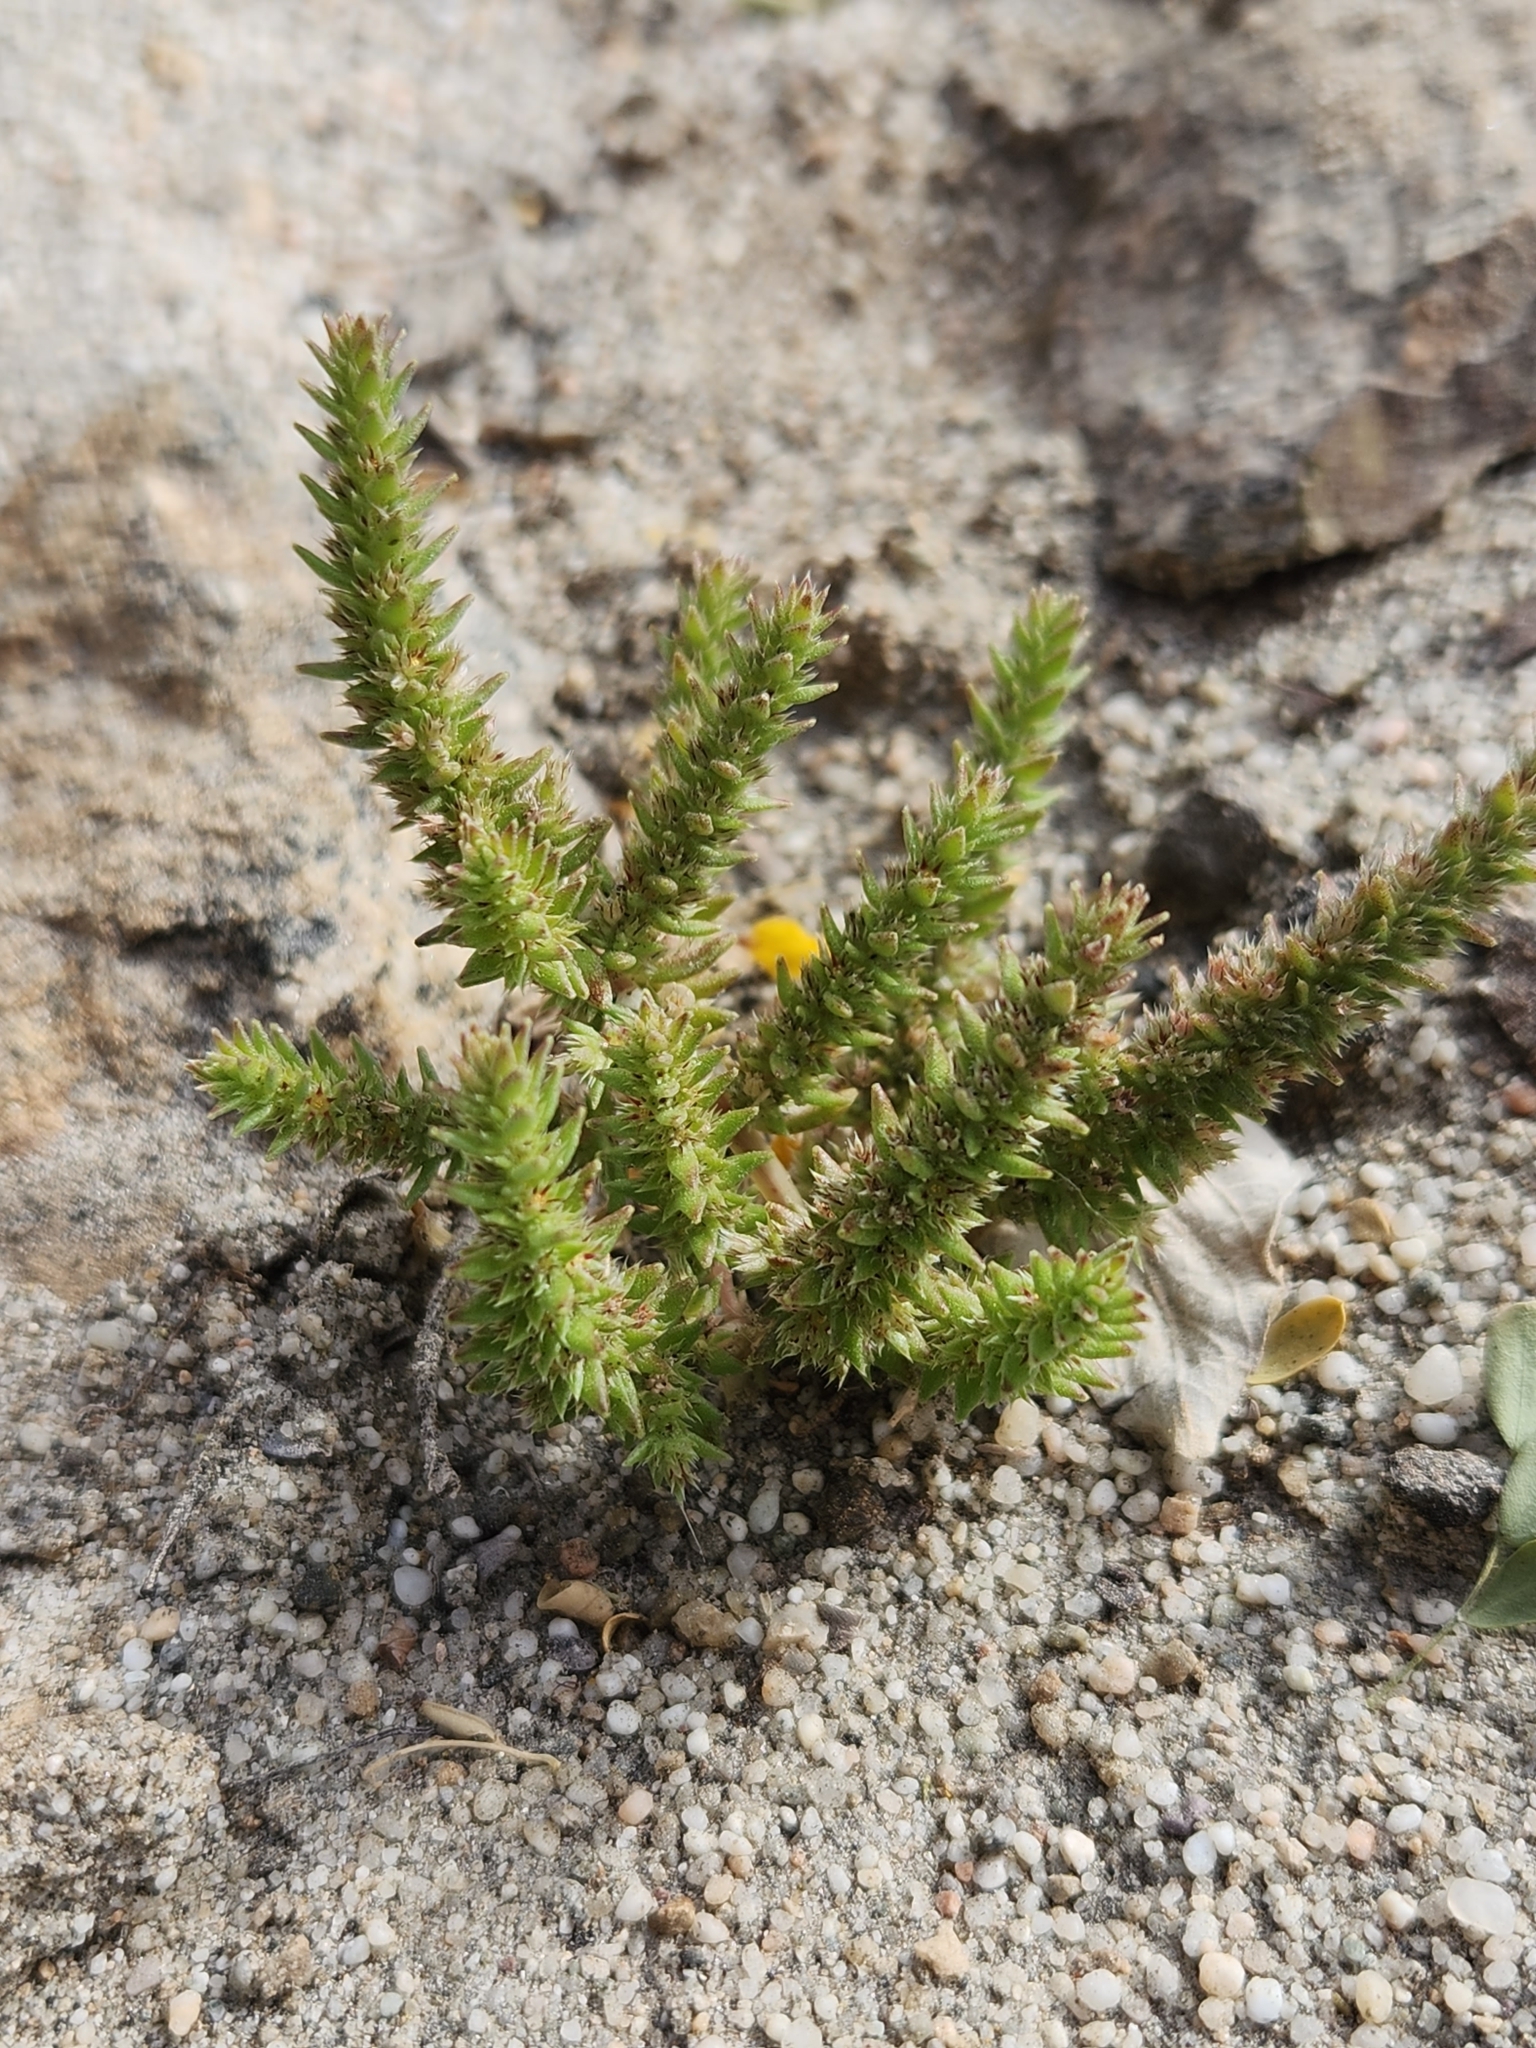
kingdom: Plantae
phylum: Tracheophyta
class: Magnoliopsida
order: Saxifragales
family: Crassulaceae
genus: Crassula
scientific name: Crassula colligata
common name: Pygmyweed
